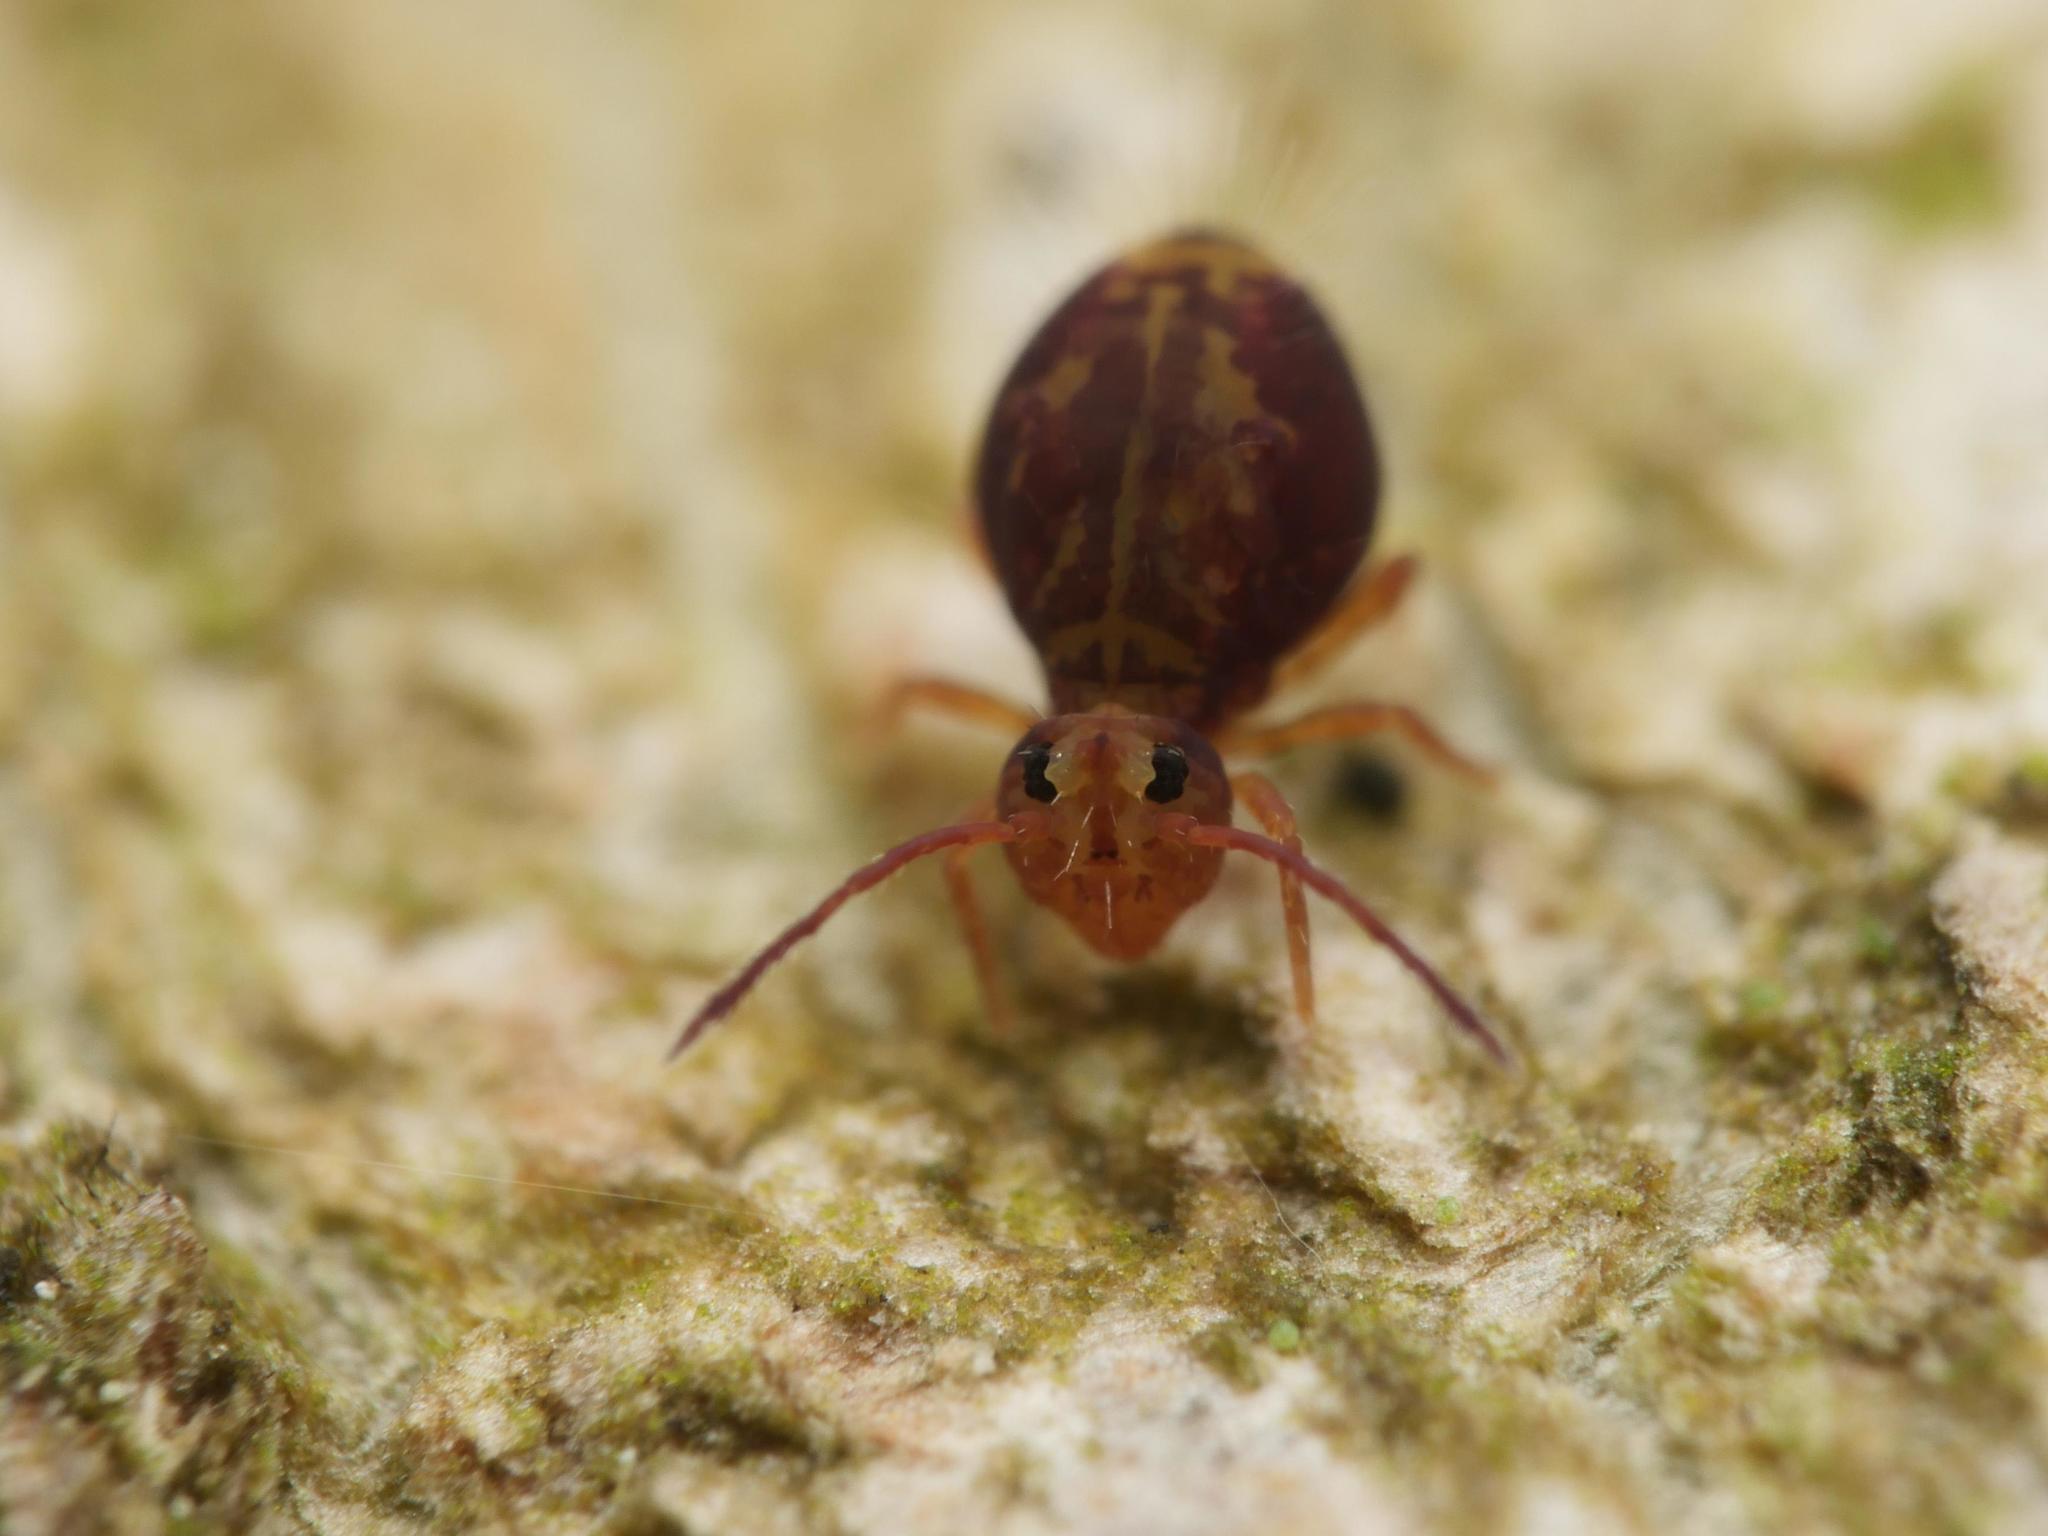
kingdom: Animalia
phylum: Arthropoda
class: Collembola
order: Symphypleona
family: Dicyrtomidae
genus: Dicyrtomina
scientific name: Dicyrtomina ornata
